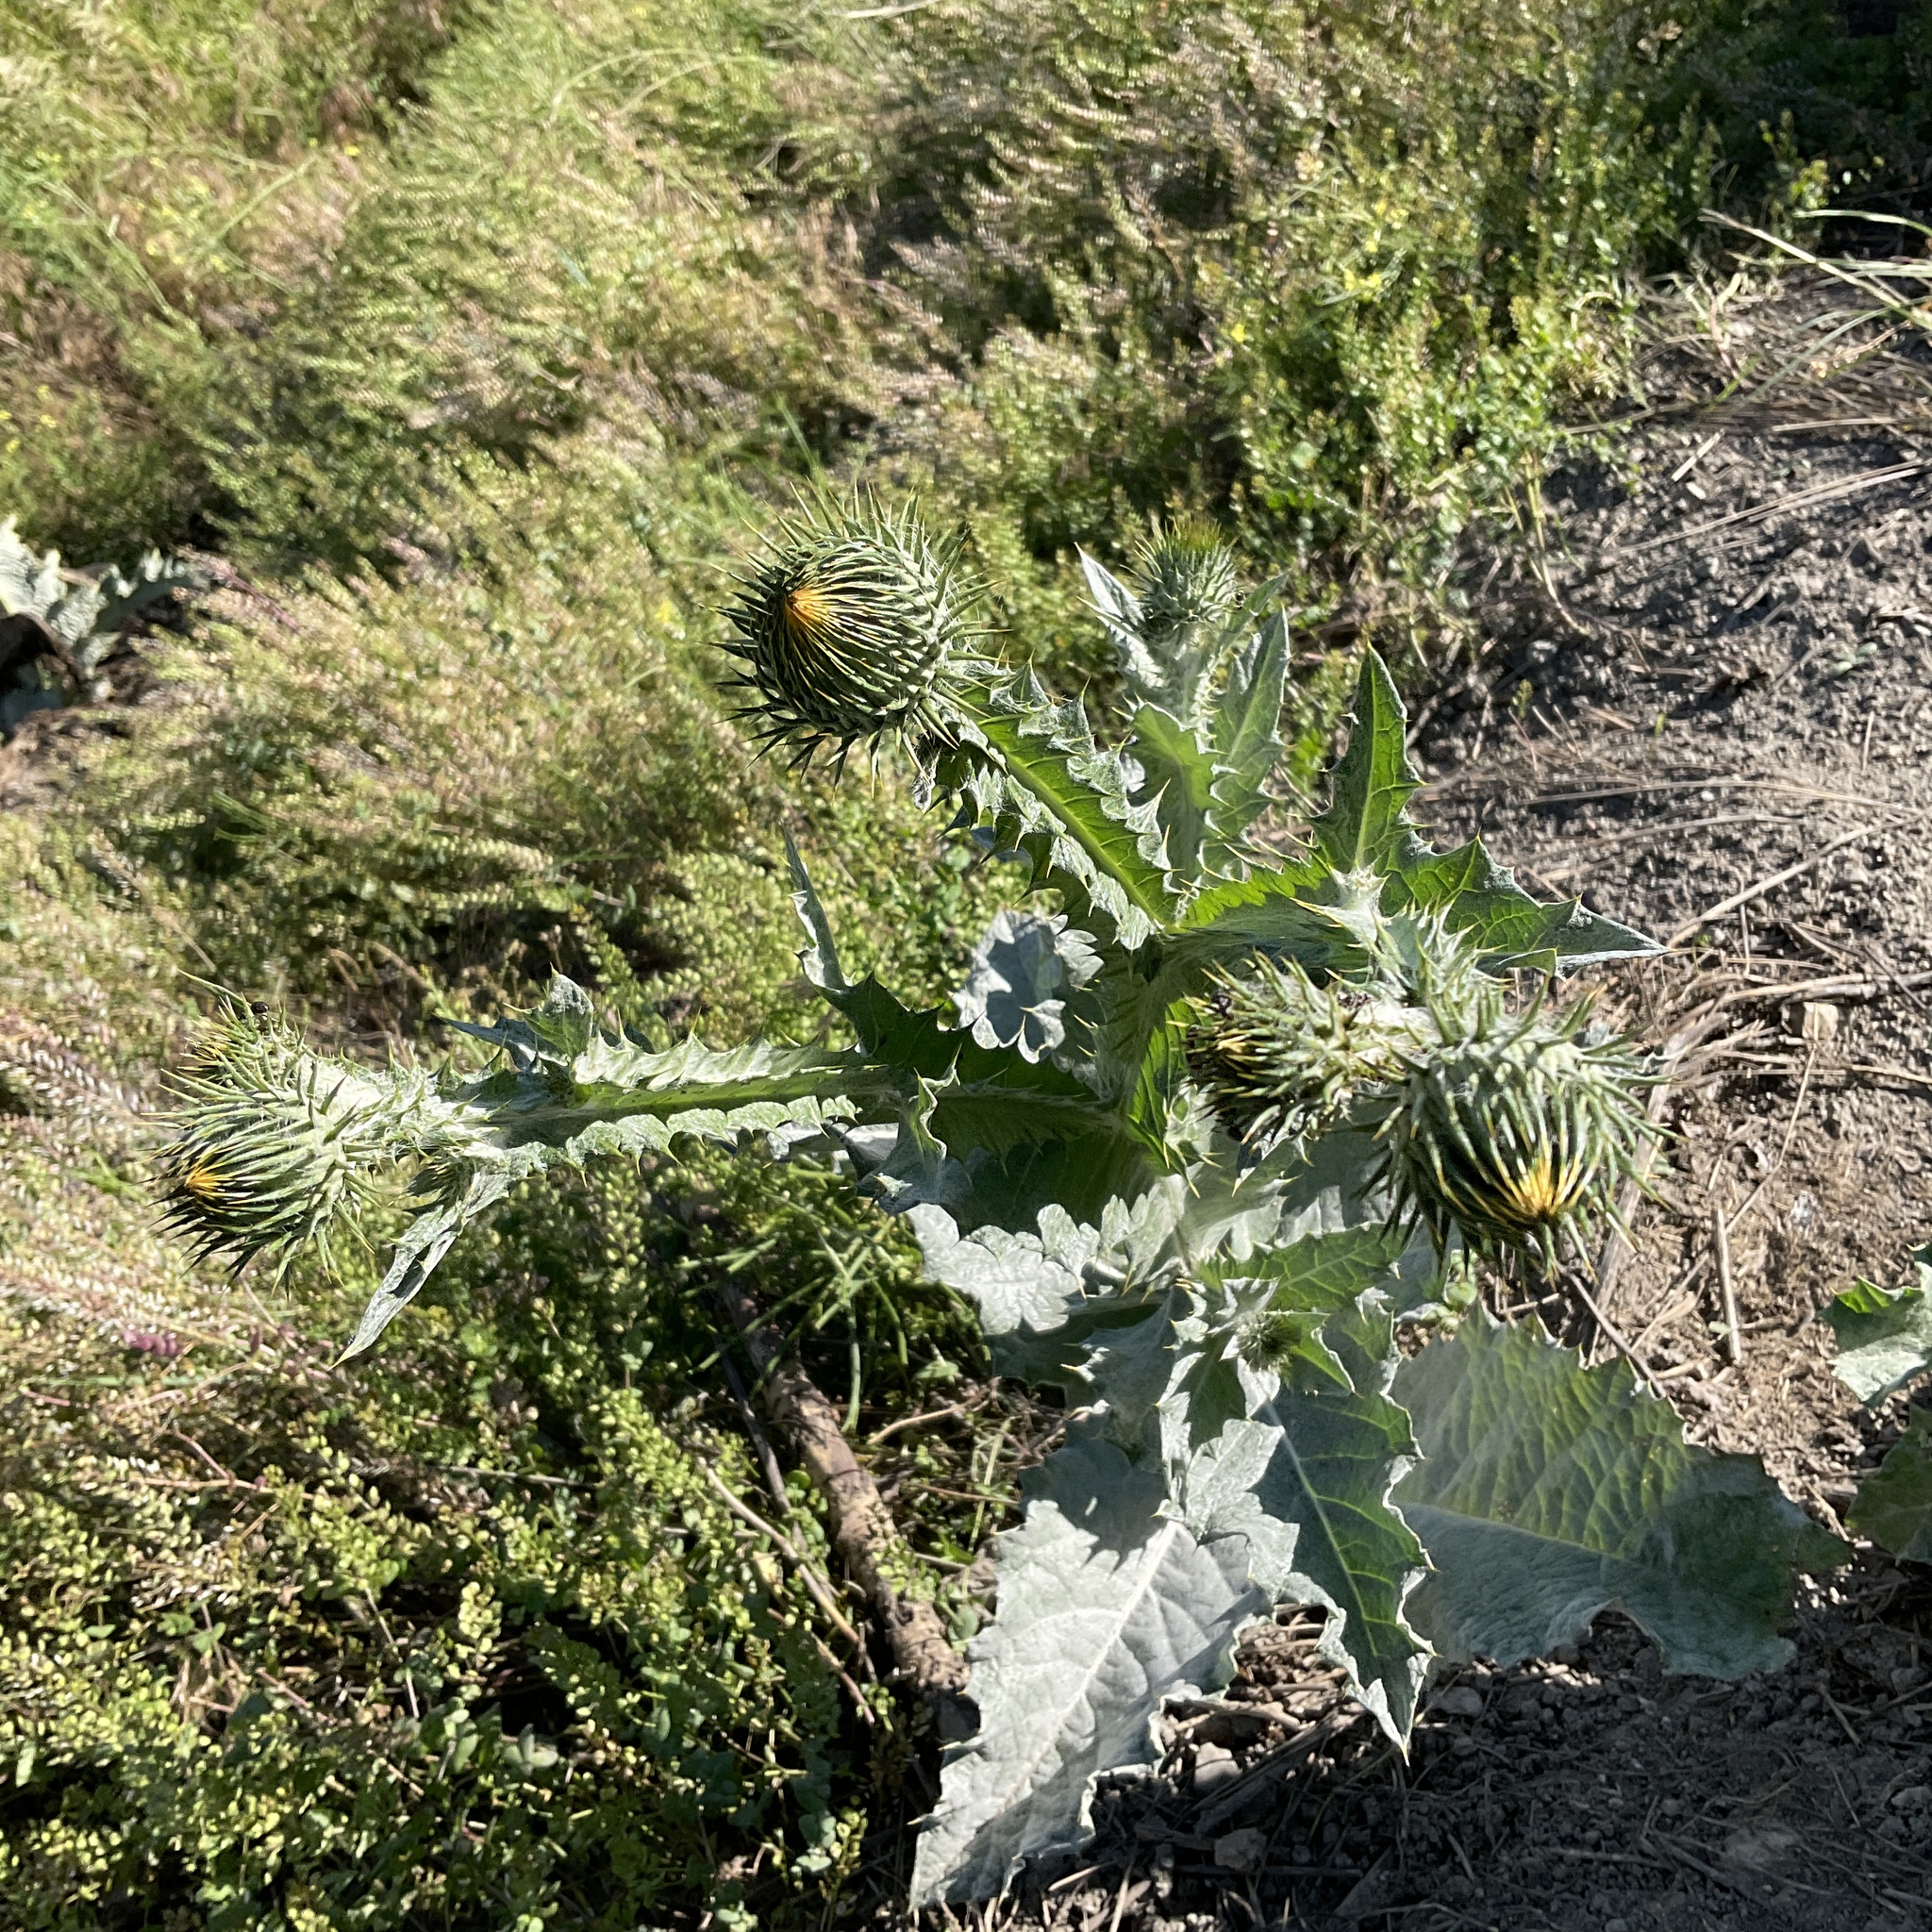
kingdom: Plantae
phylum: Tracheophyta
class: Magnoliopsida
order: Asterales
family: Asteraceae
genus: Onopordum
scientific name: Onopordum acanthium
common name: Scotch thistle
